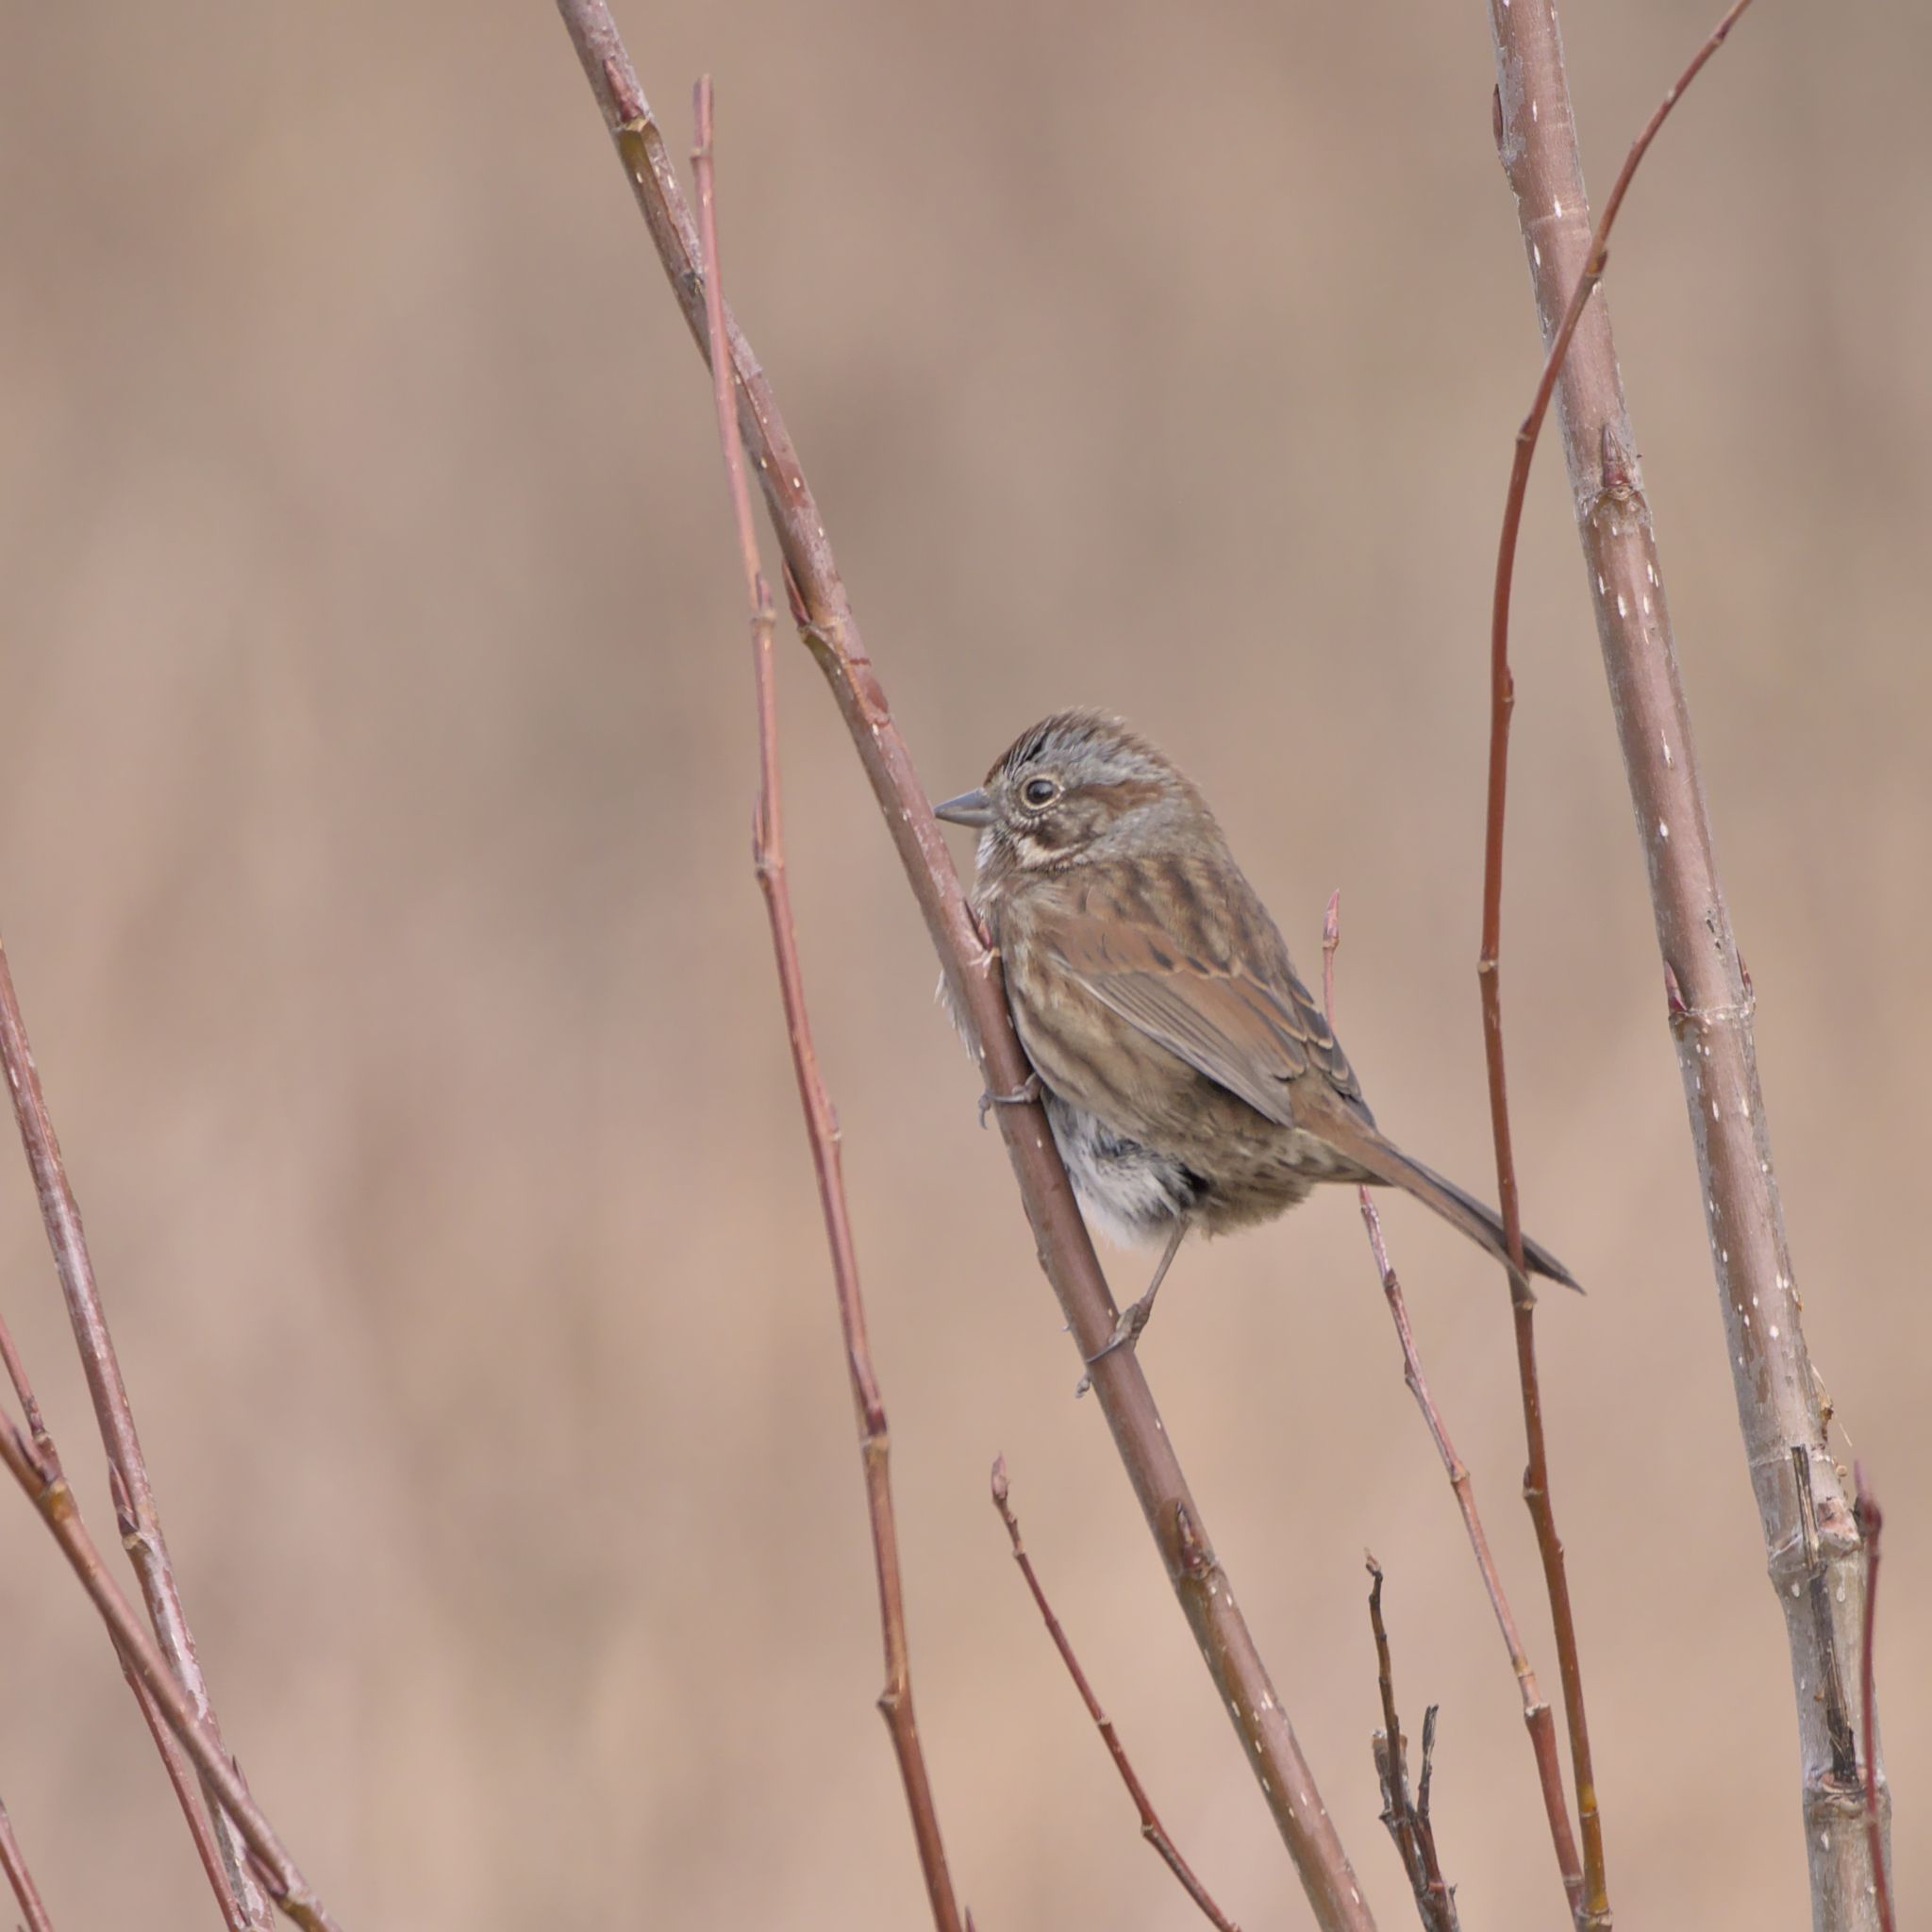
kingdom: Animalia
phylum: Chordata
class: Aves
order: Passeriformes
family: Passerellidae
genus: Melospiza
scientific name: Melospiza melodia
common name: Song sparrow
